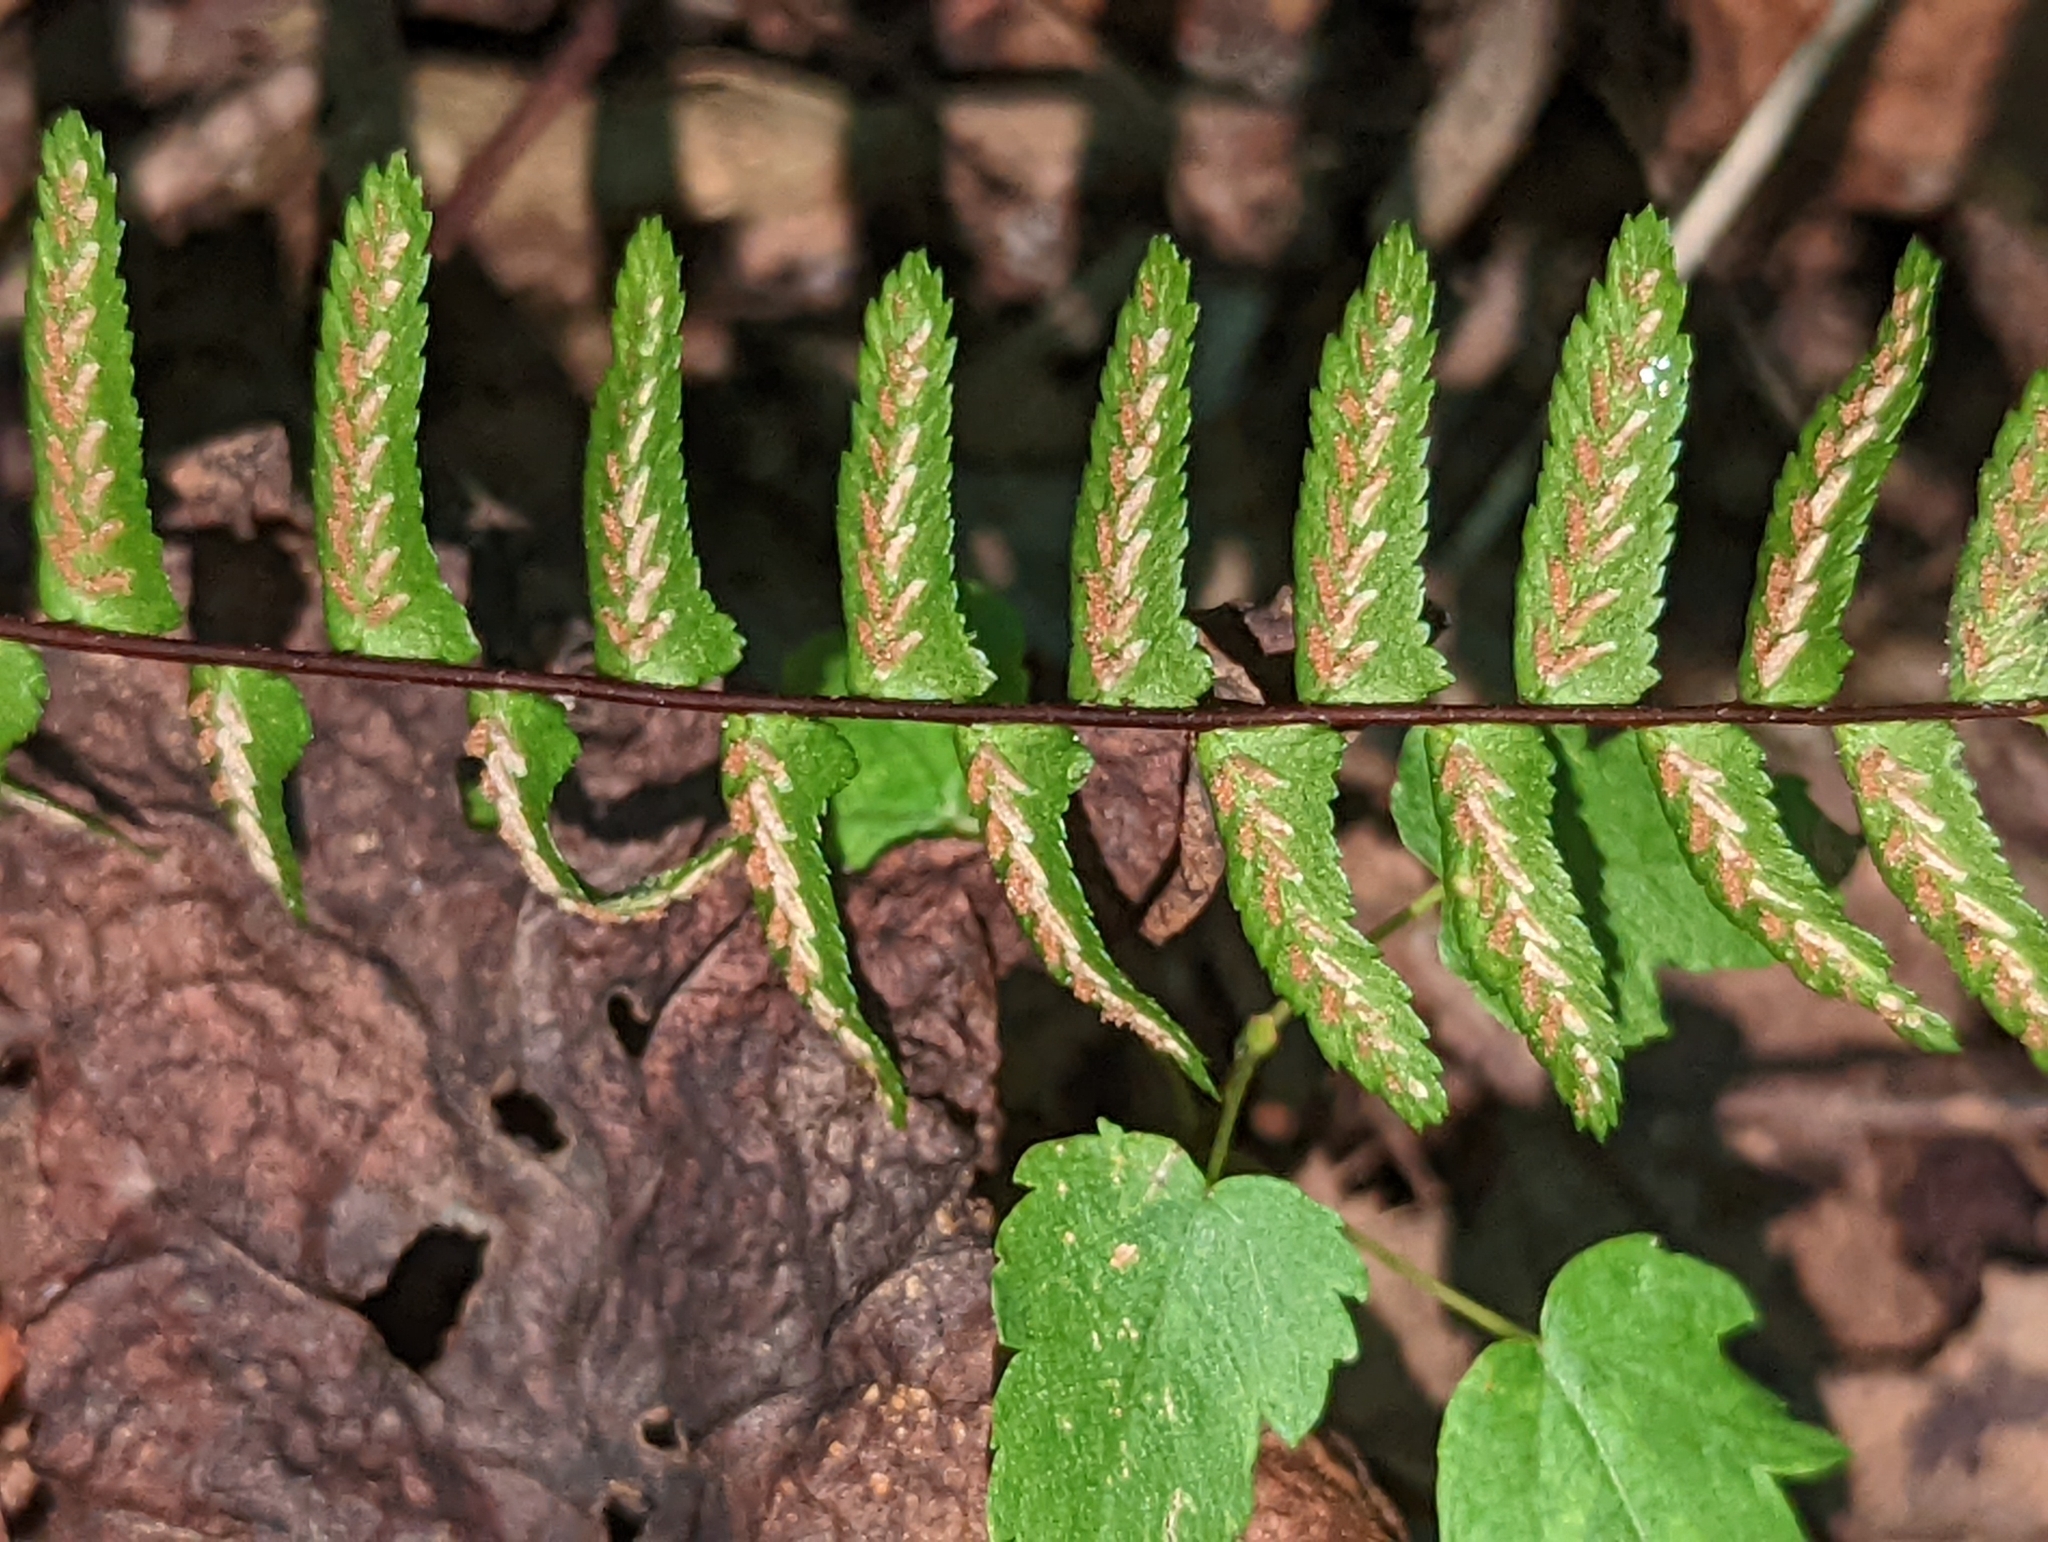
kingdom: Plantae
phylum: Tracheophyta
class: Polypodiopsida
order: Polypodiales
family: Aspleniaceae
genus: Asplenium
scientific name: Asplenium platyneuron
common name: Ebony spleenwort
